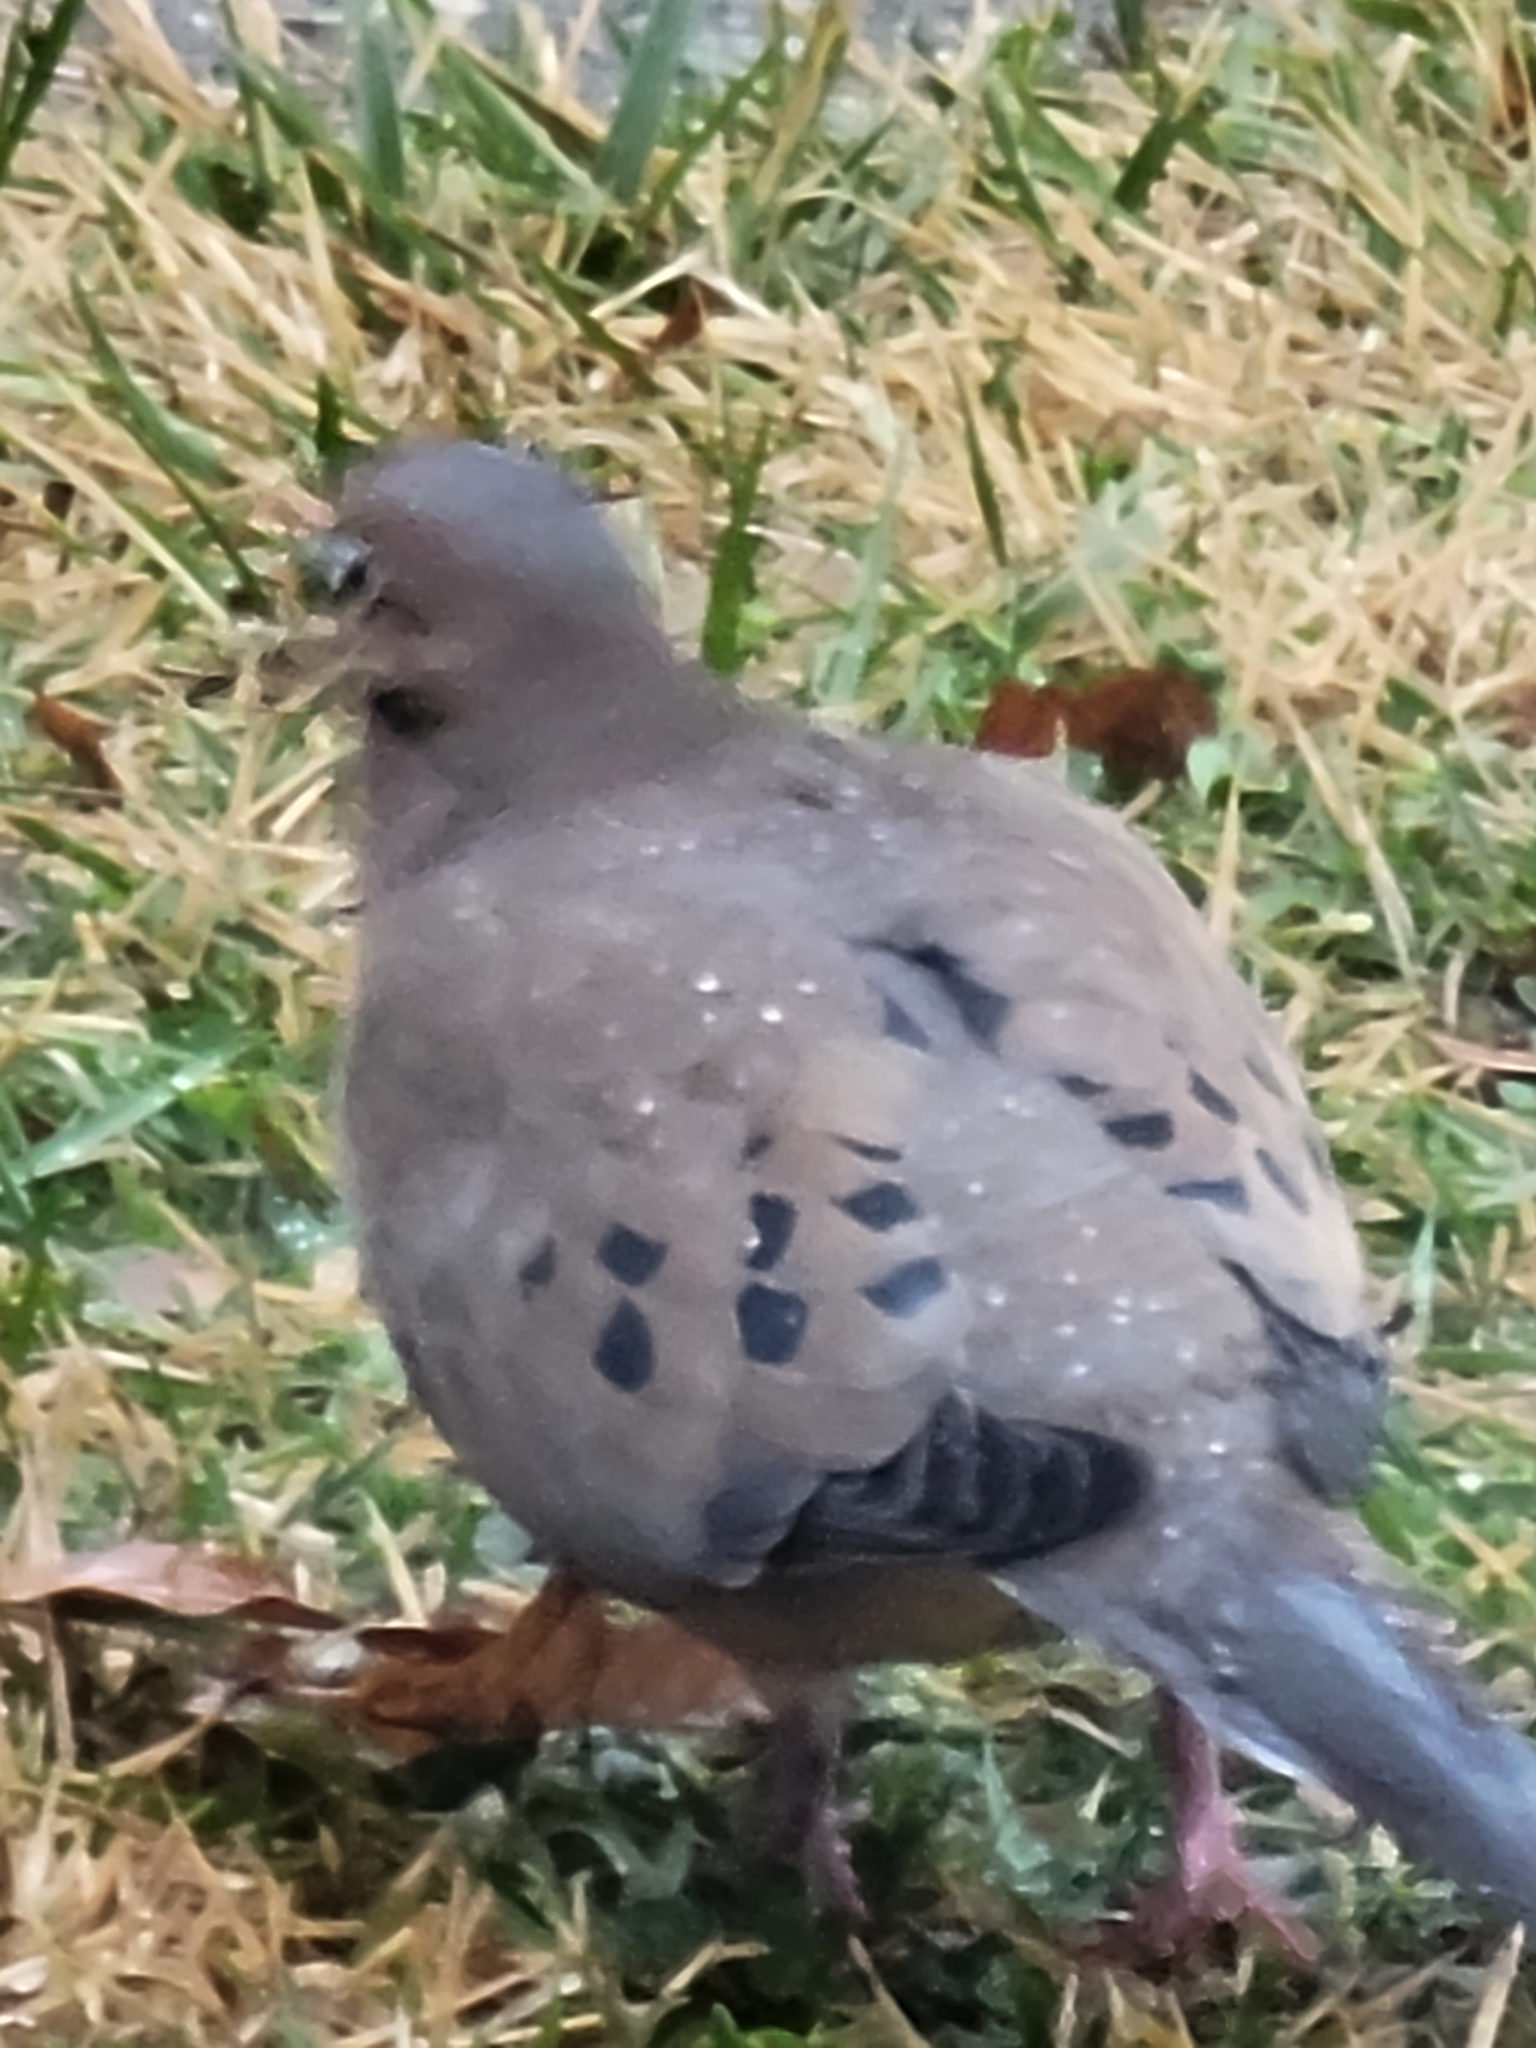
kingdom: Animalia
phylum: Chordata
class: Aves
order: Columbiformes
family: Columbidae
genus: Zenaida
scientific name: Zenaida macroura
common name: Mourning dove
